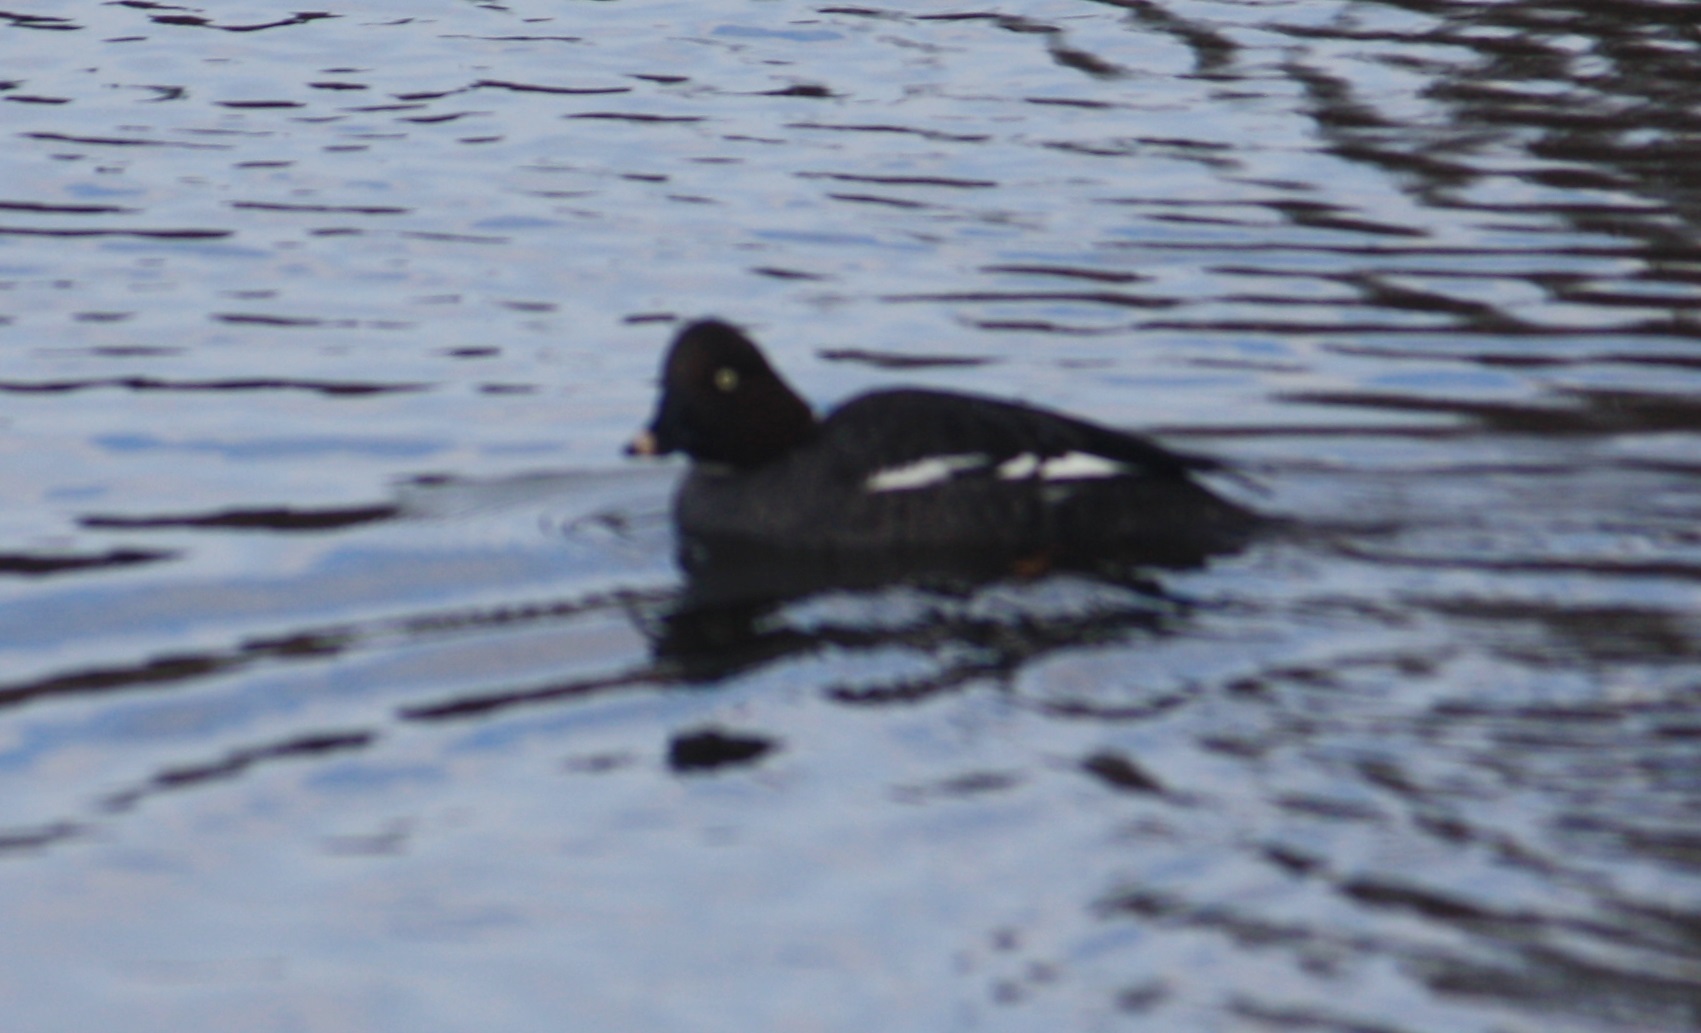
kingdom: Animalia
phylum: Chordata
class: Aves
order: Anseriformes
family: Anatidae
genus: Bucephala
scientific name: Bucephala clangula
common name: Common goldeneye
